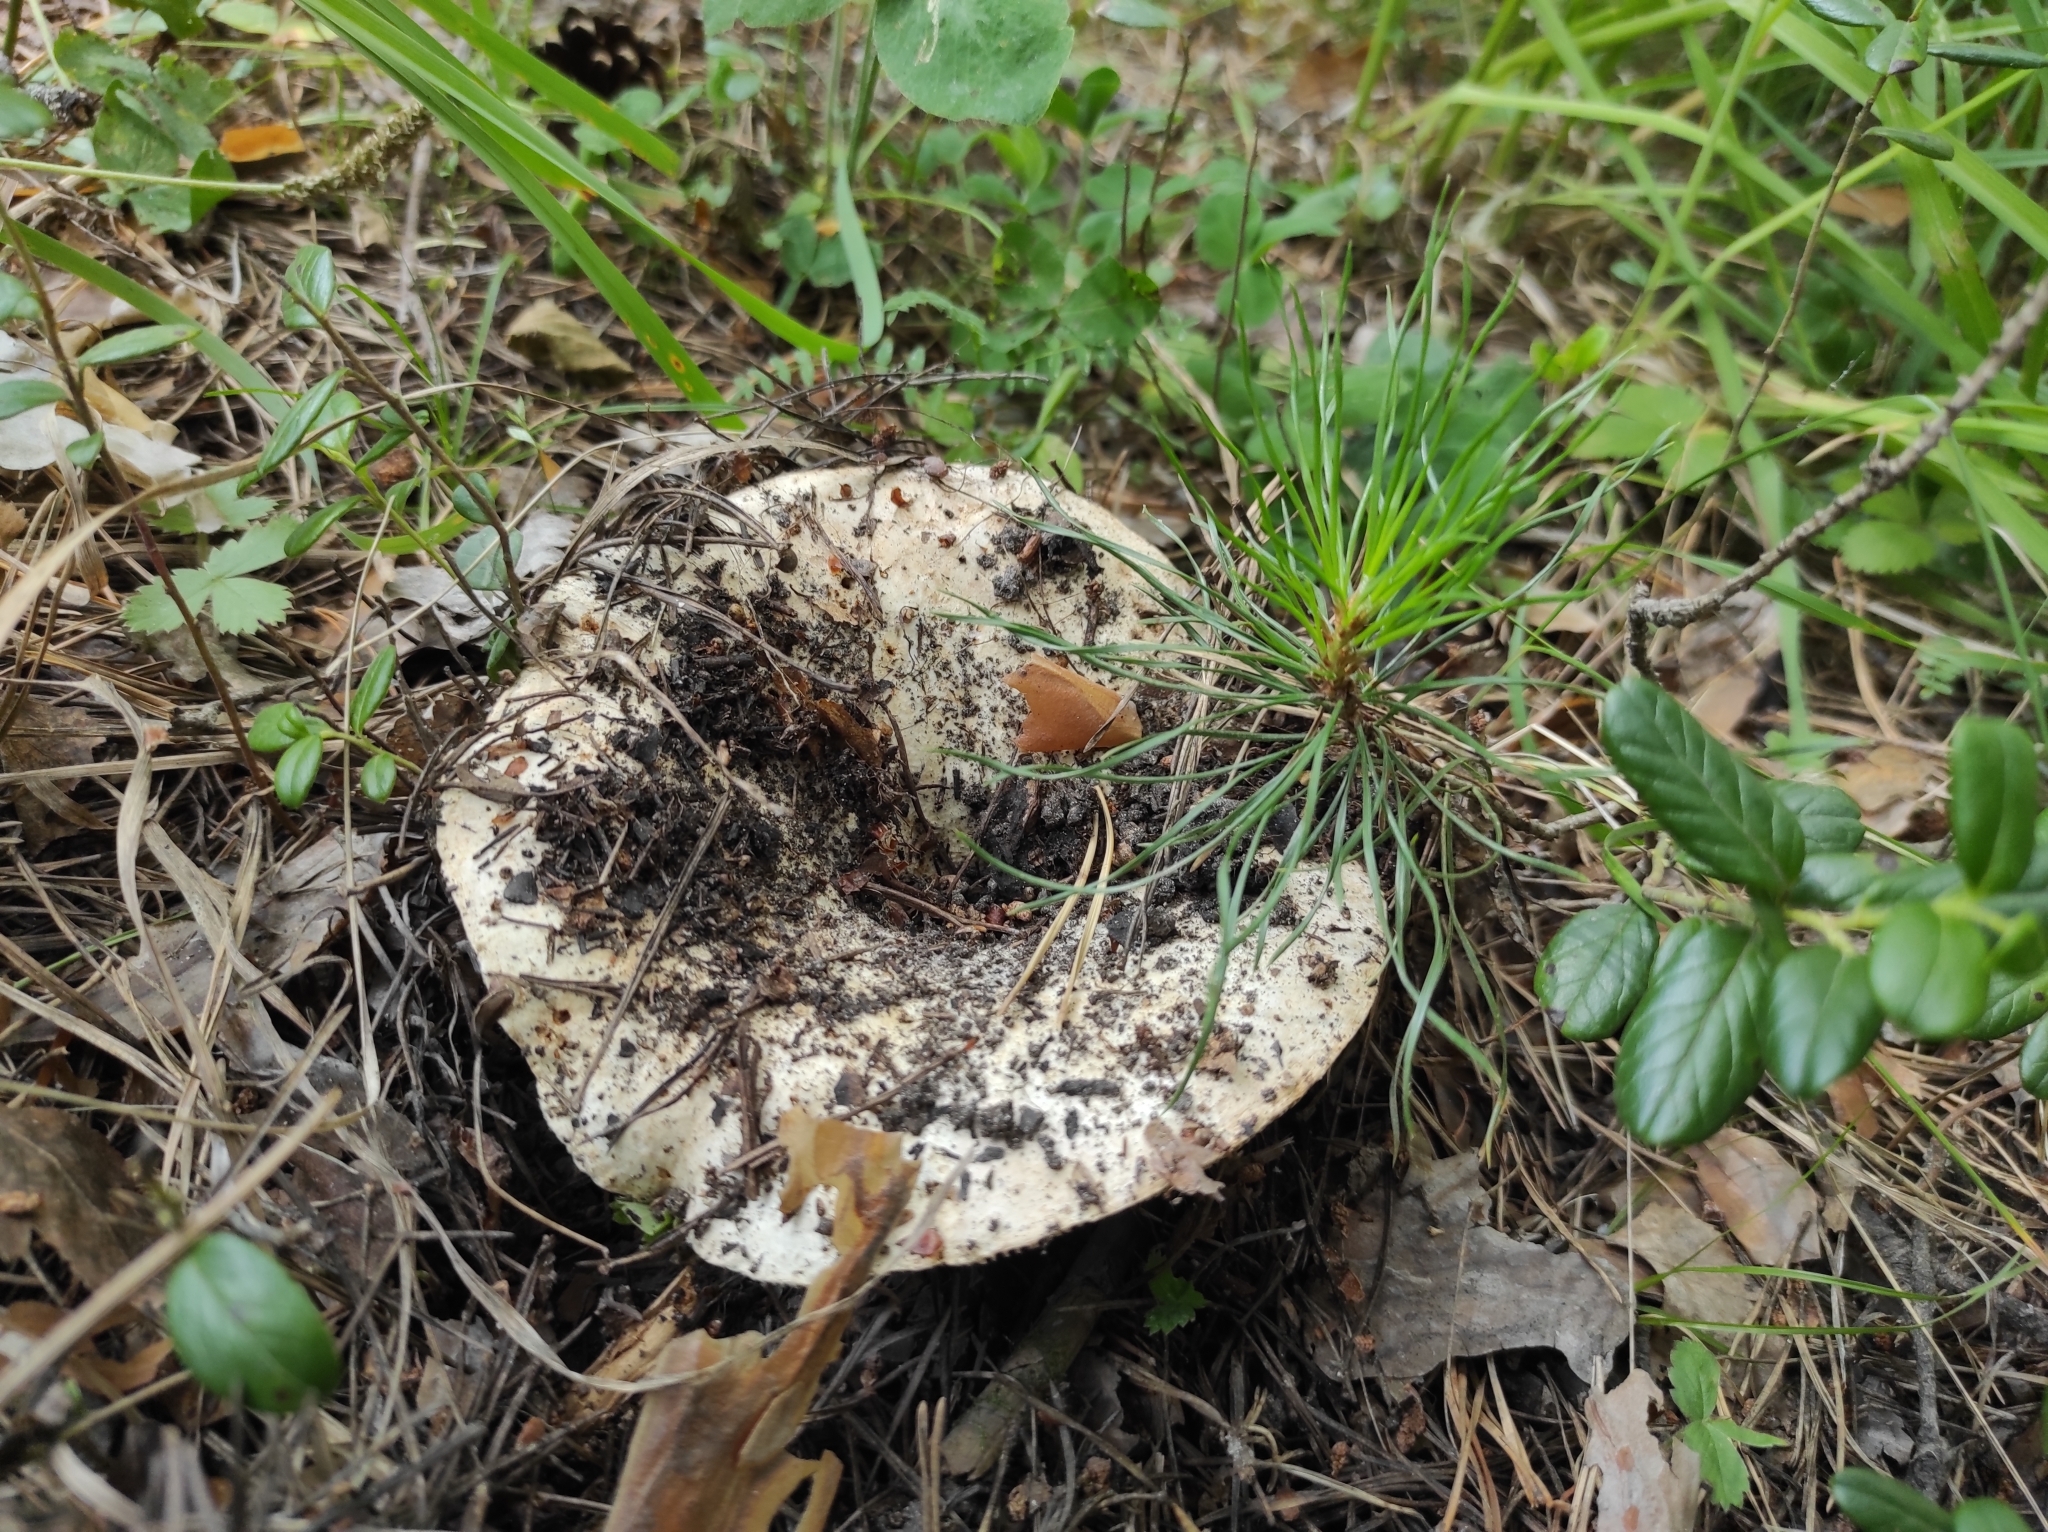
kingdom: Fungi
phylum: Basidiomycota
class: Agaricomycetes
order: Russulales
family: Russulaceae
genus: Russula
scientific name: Russula delica
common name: Milk white brittlegill
